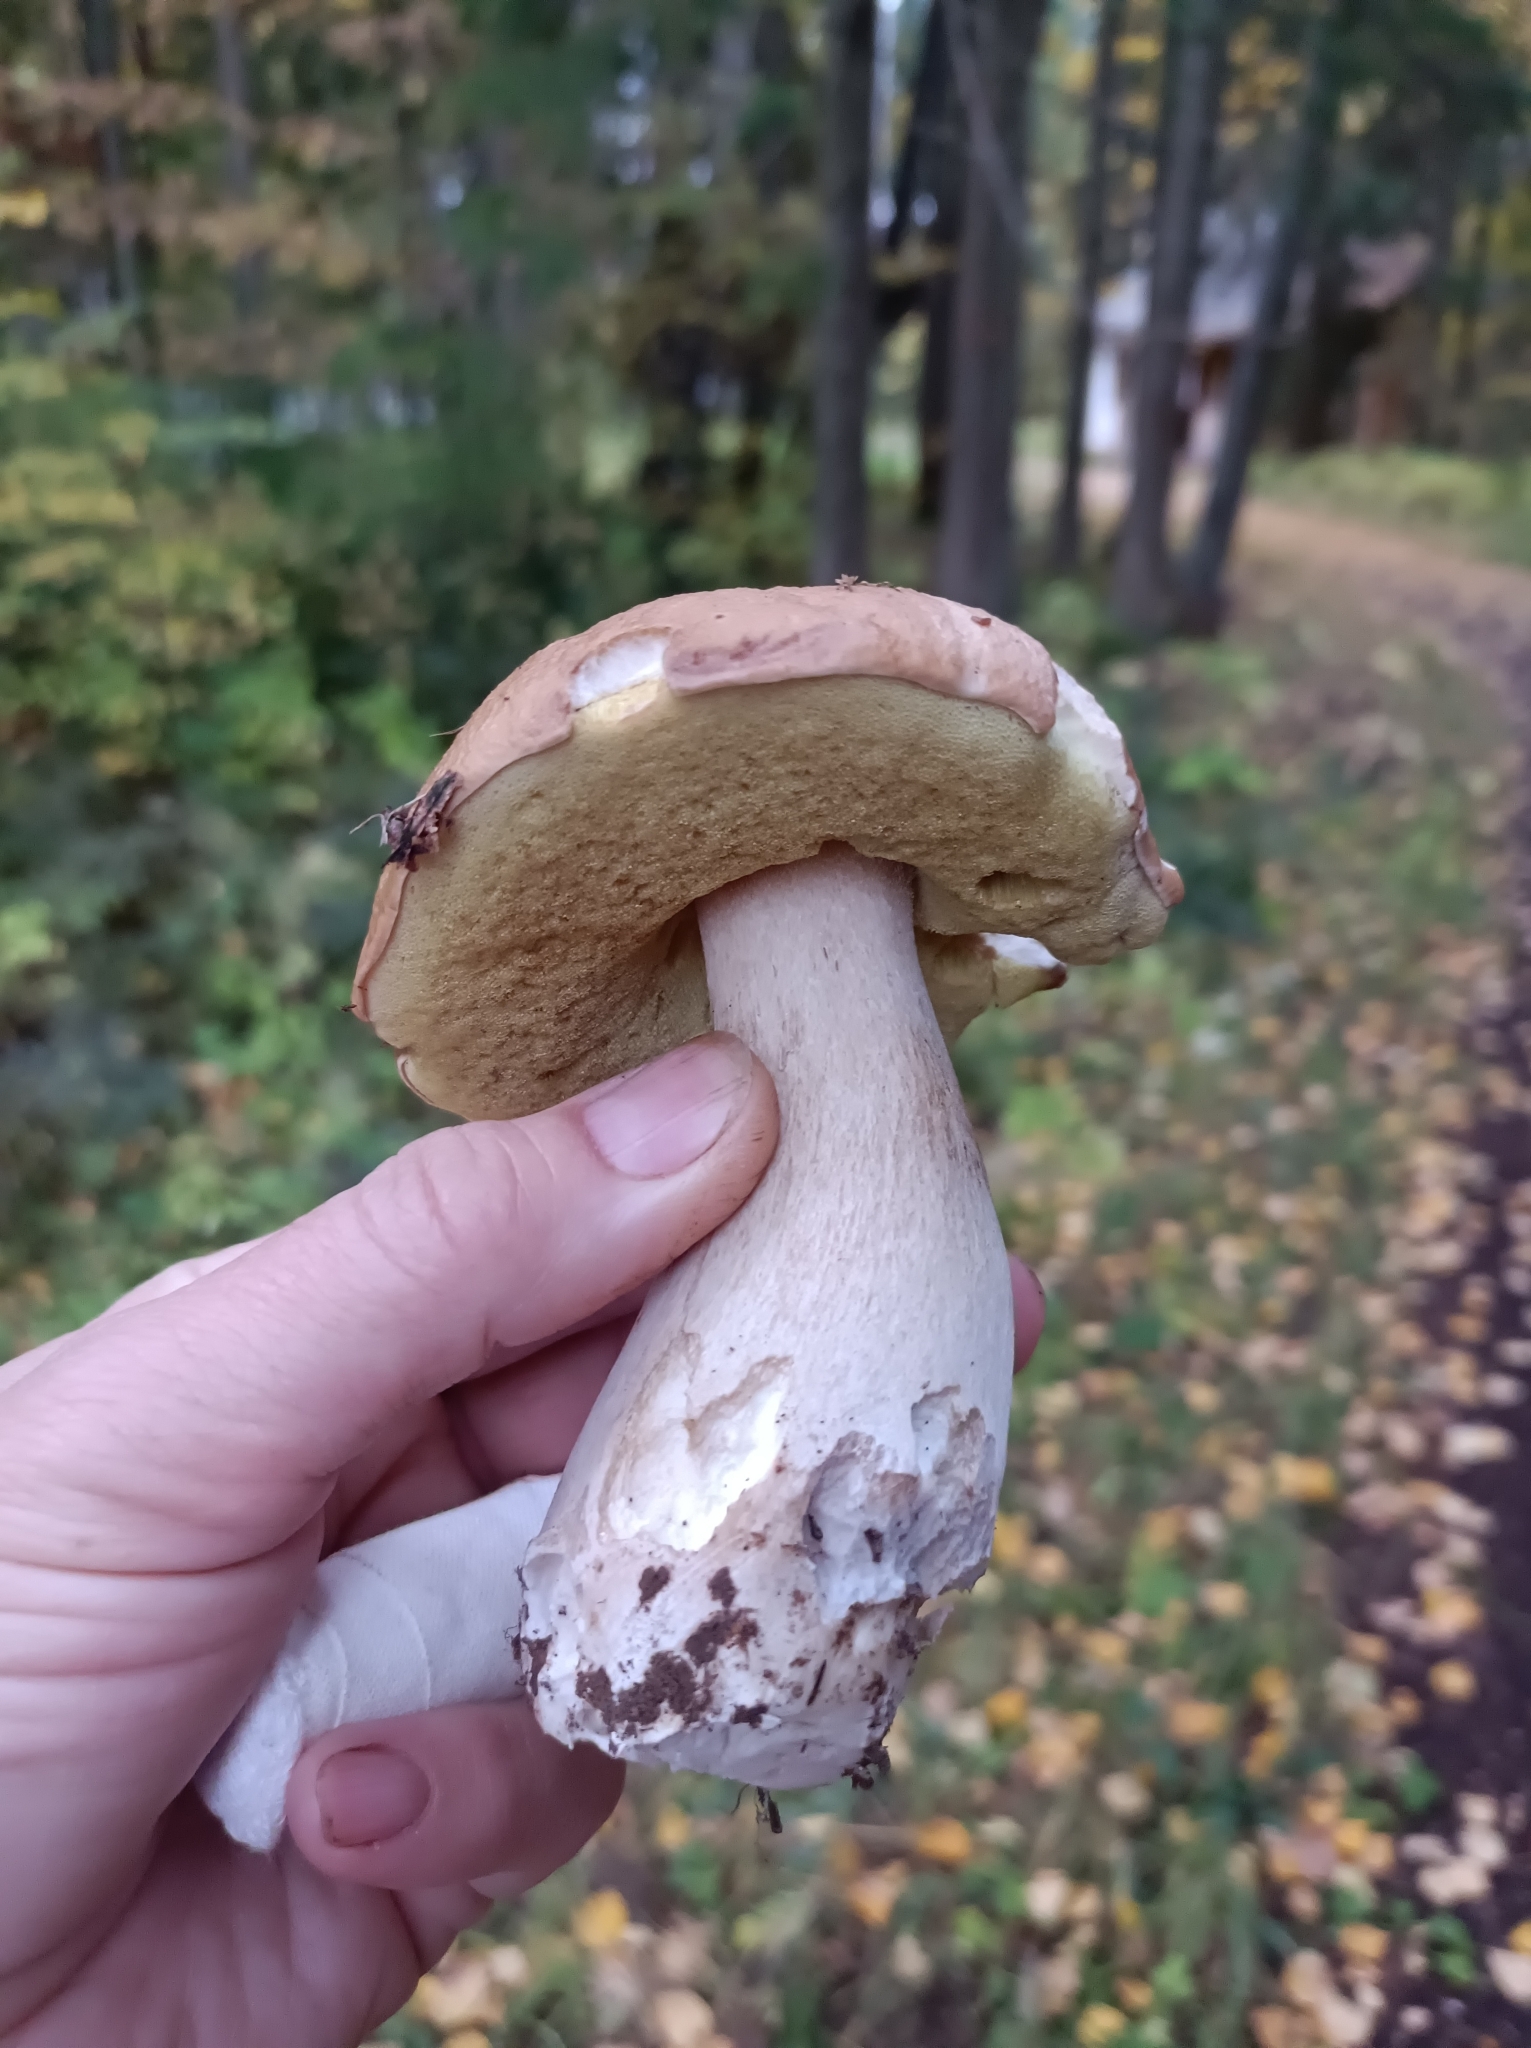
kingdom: Fungi
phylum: Basidiomycota
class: Agaricomycetes
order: Boletales
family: Boletaceae
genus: Boletus
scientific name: Boletus edulis
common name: Cep
